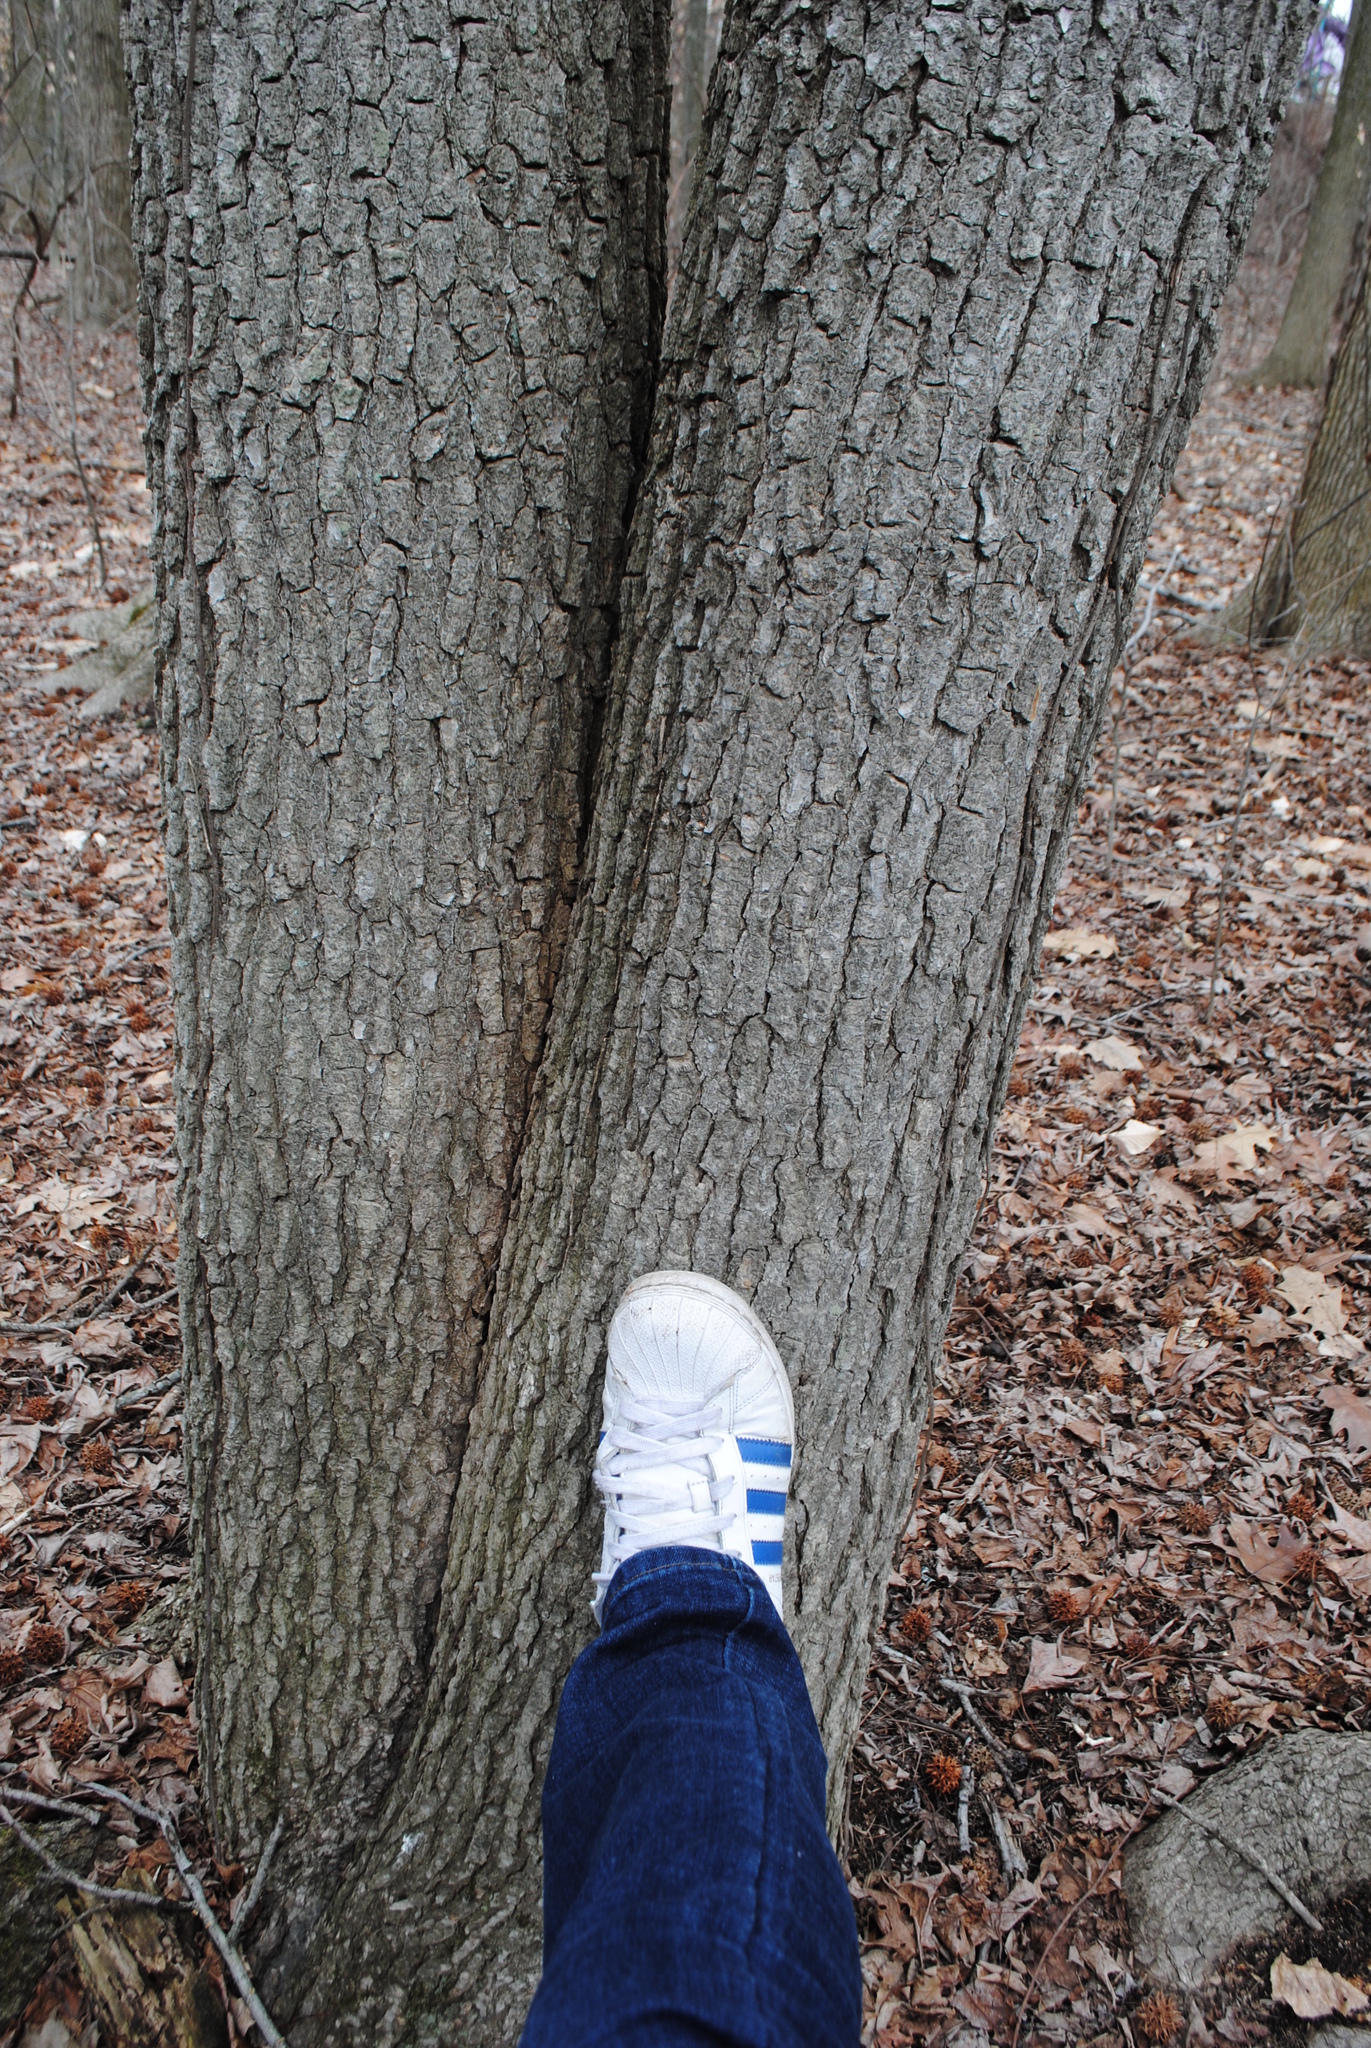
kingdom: Plantae
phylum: Tracheophyta
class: Magnoliopsida
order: Saxifragales
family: Altingiaceae
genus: Liquidambar
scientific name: Liquidambar styraciflua
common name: Sweet gum
